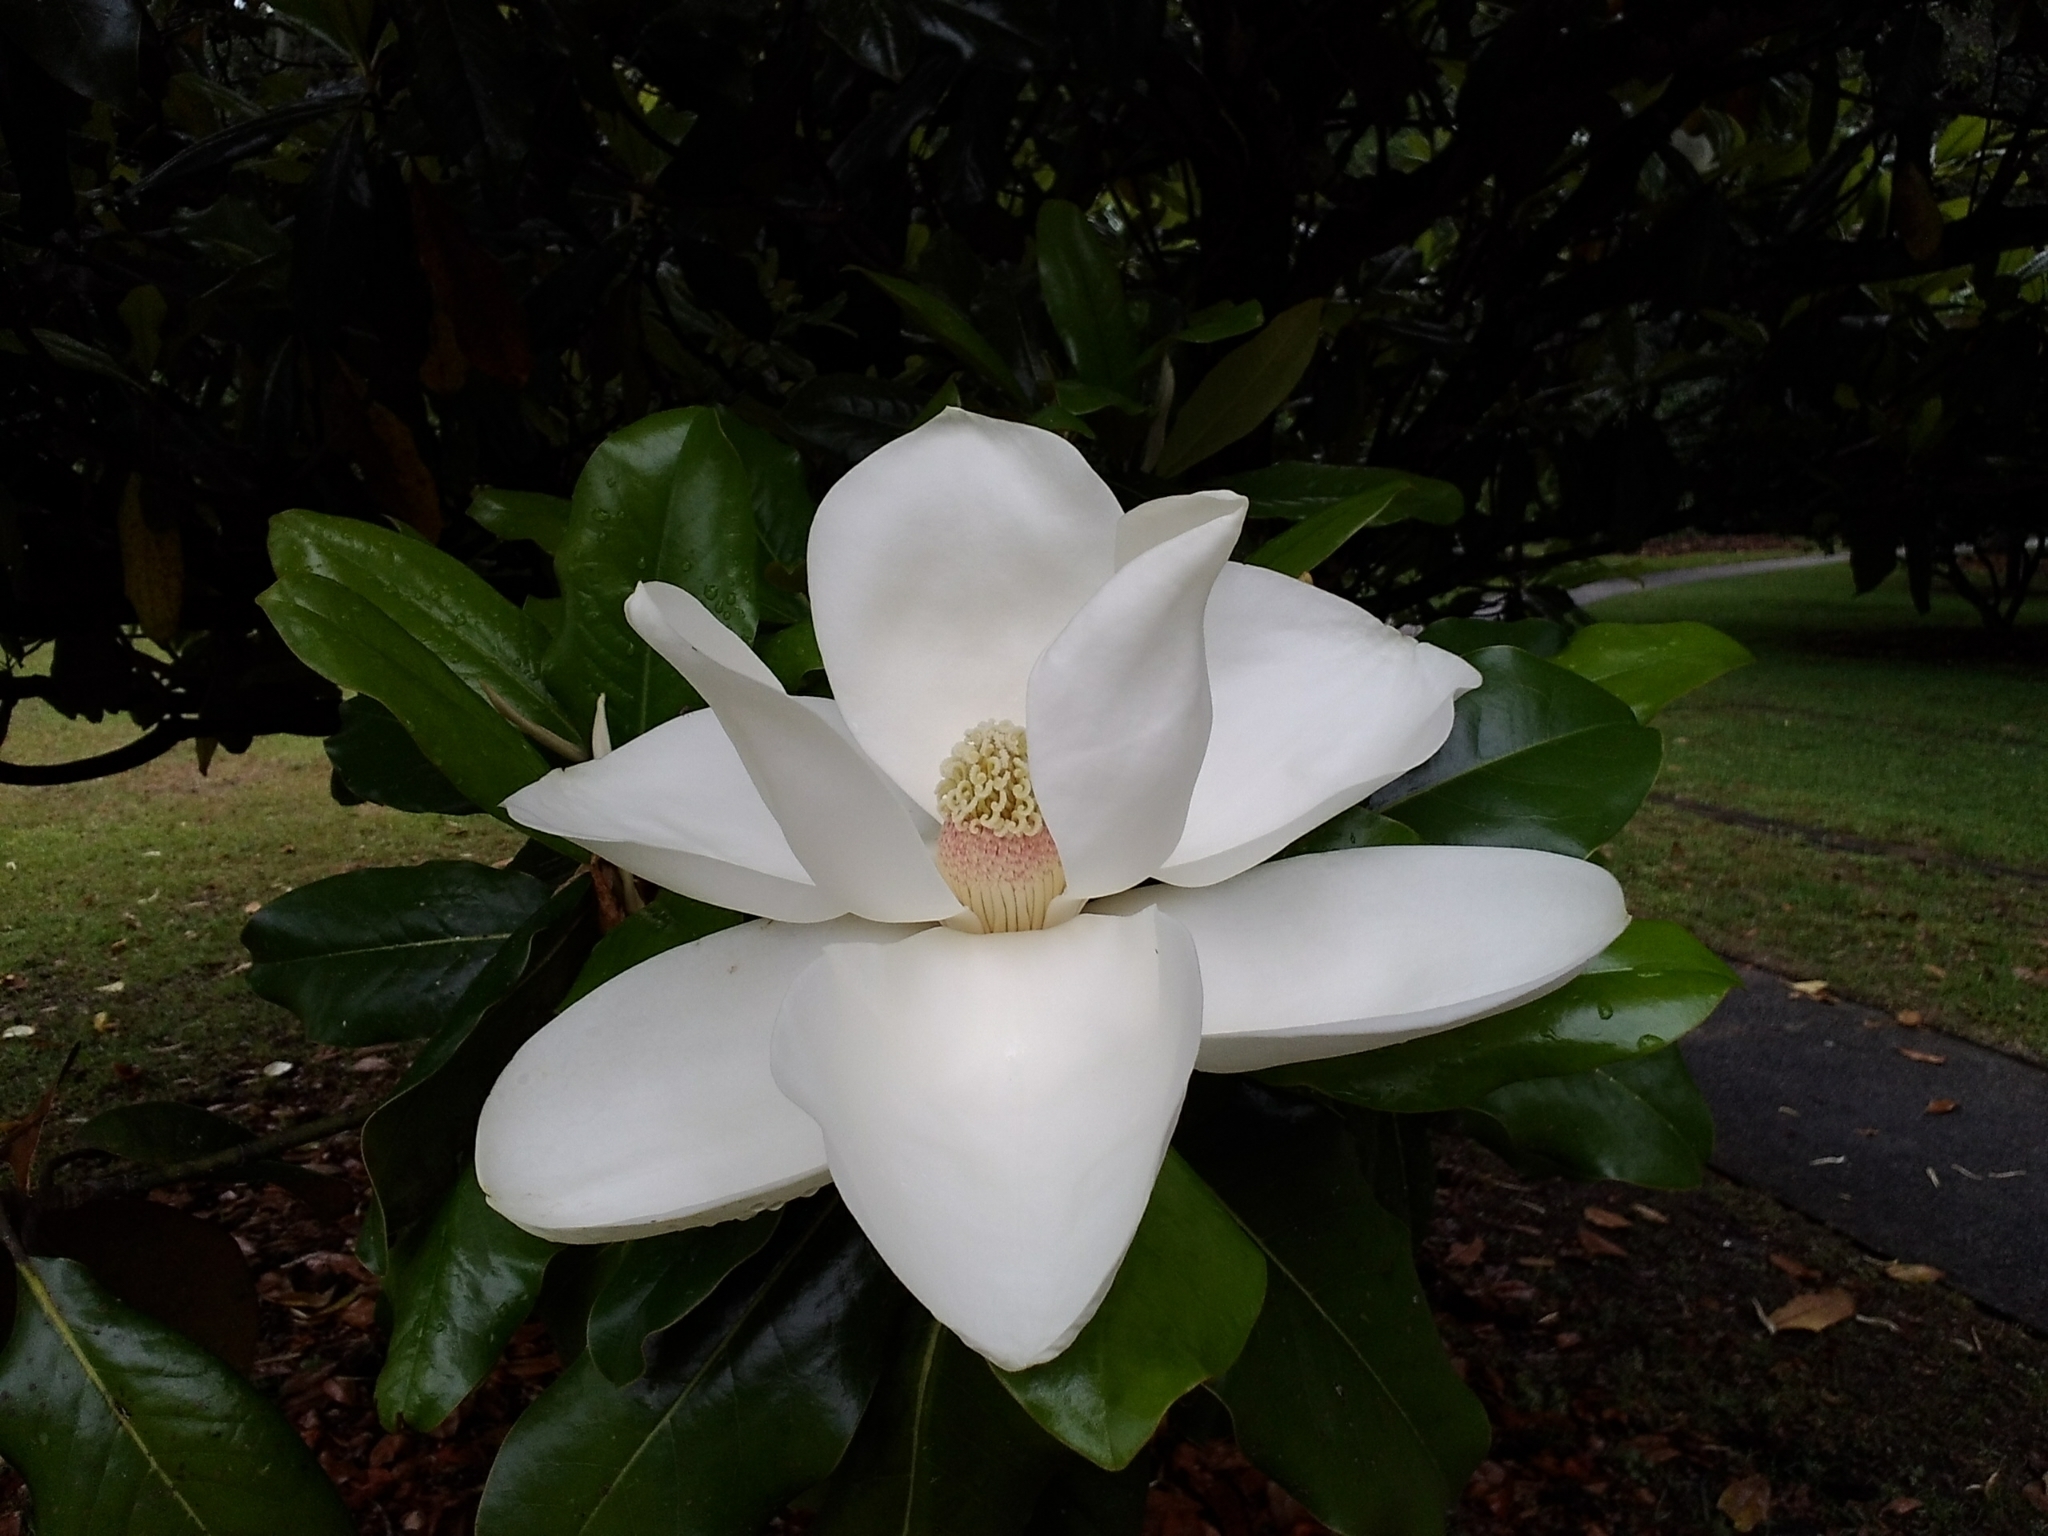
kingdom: Plantae
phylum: Tracheophyta
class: Magnoliopsida
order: Magnoliales
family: Magnoliaceae
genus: Magnolia
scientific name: Magnolia grandiflora
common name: Southern magnolia
